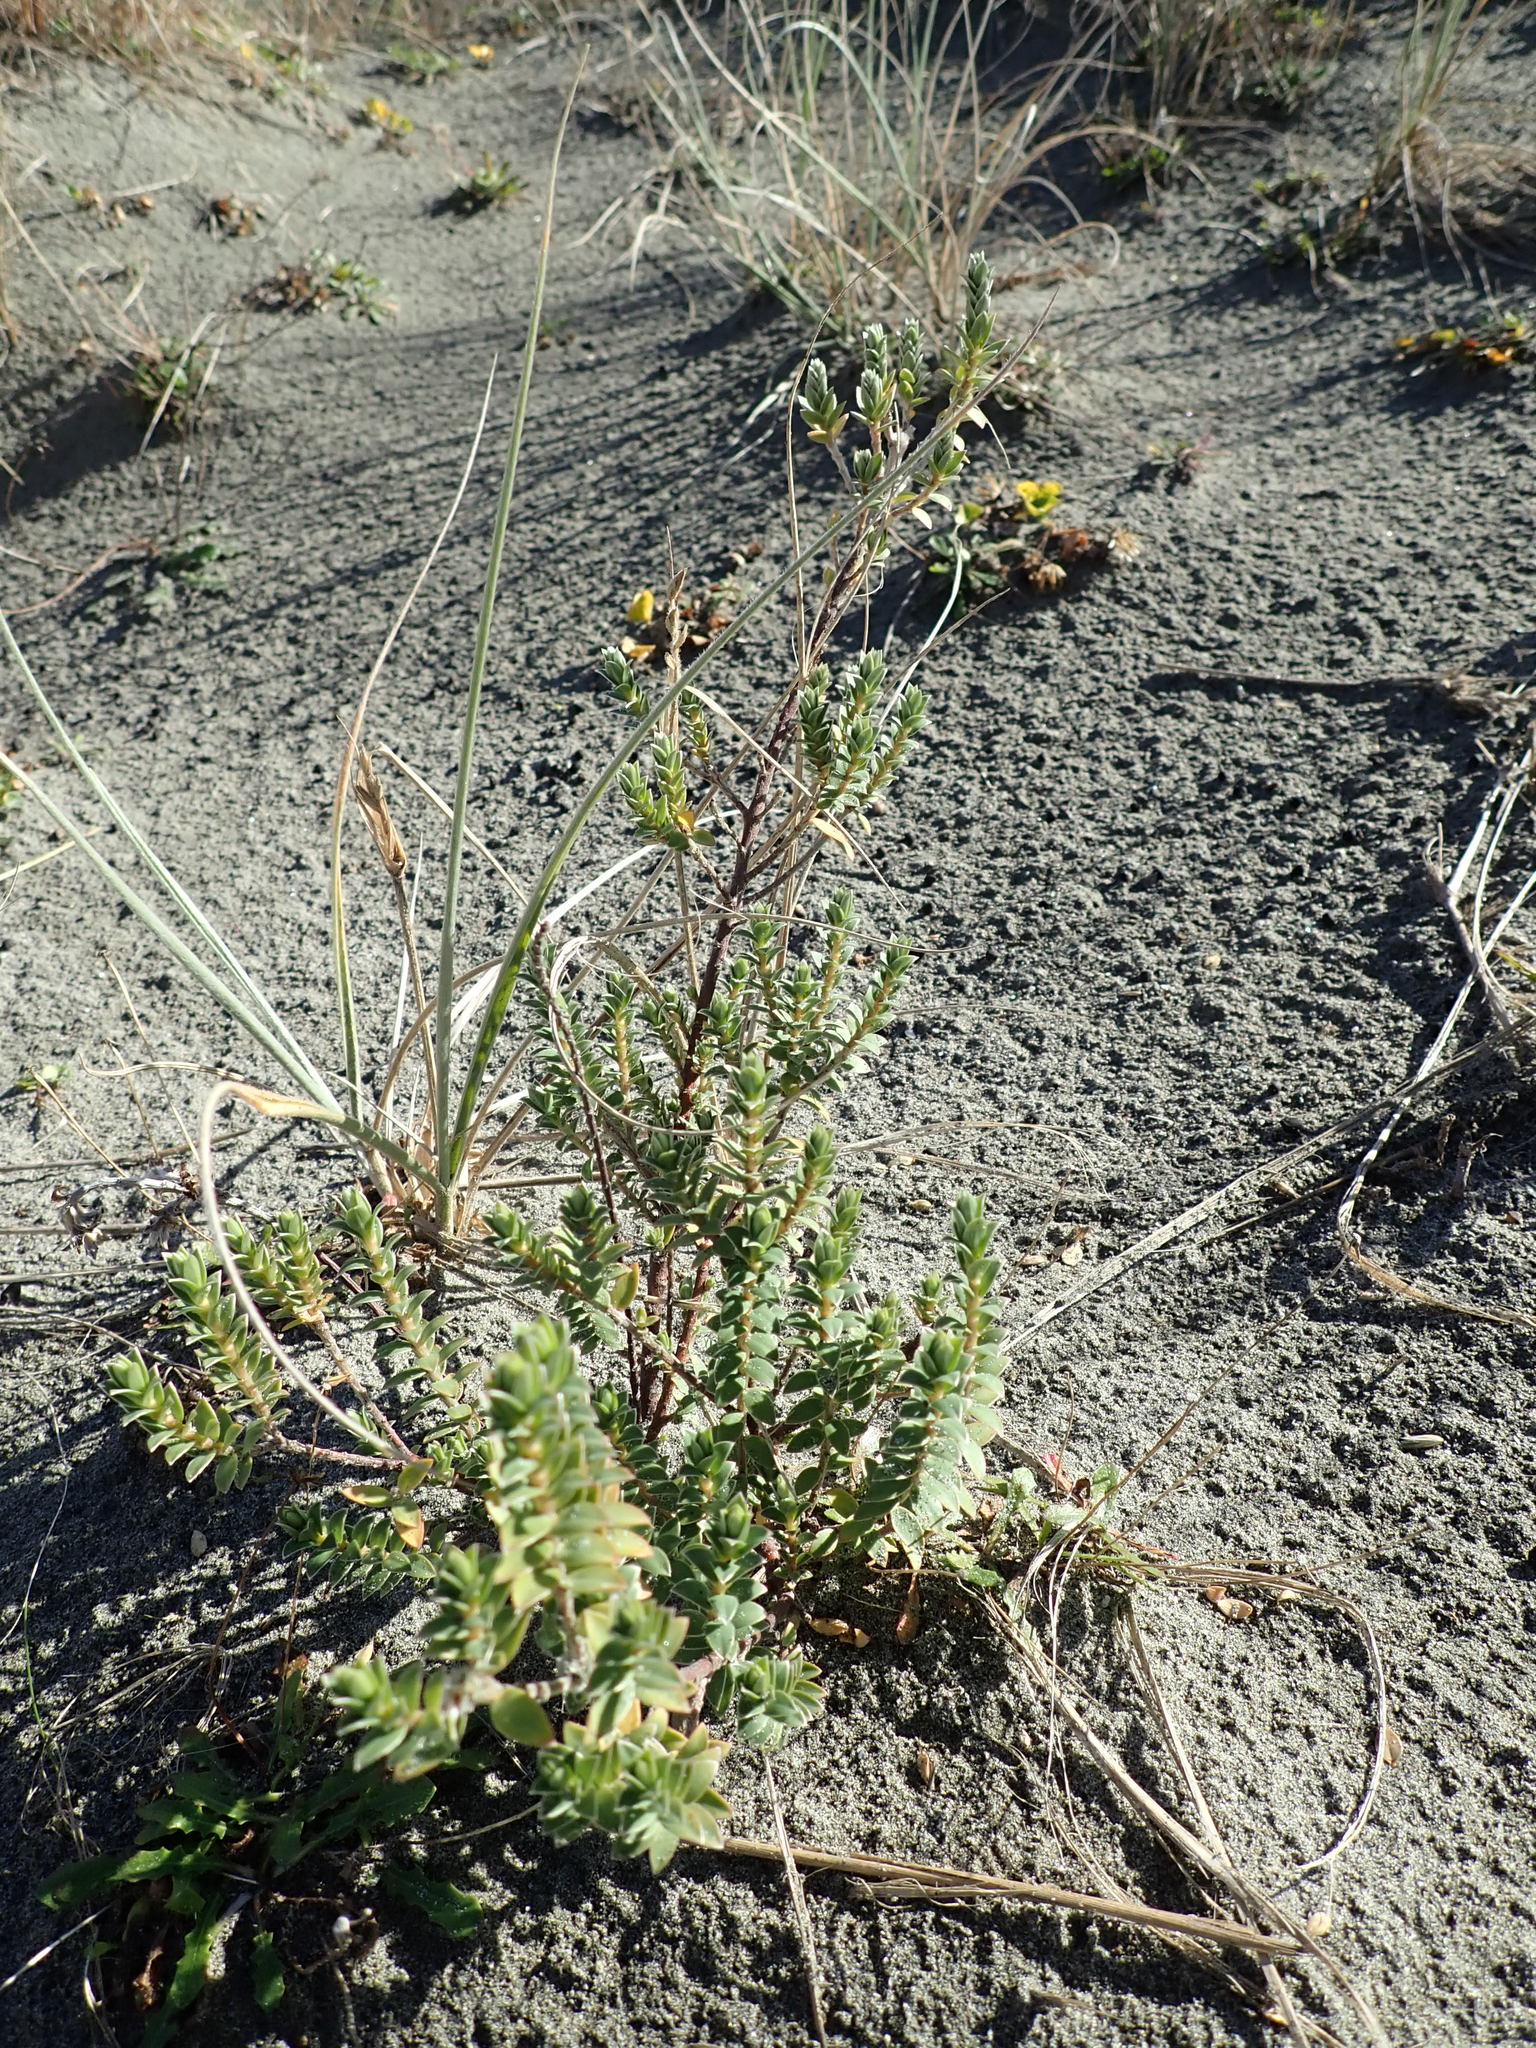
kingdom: Plantae
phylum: Tracheophyta
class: Magnoliopsida
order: Malvales
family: Thymelaeaceae
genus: Pimelea
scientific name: Pimelea villosa
